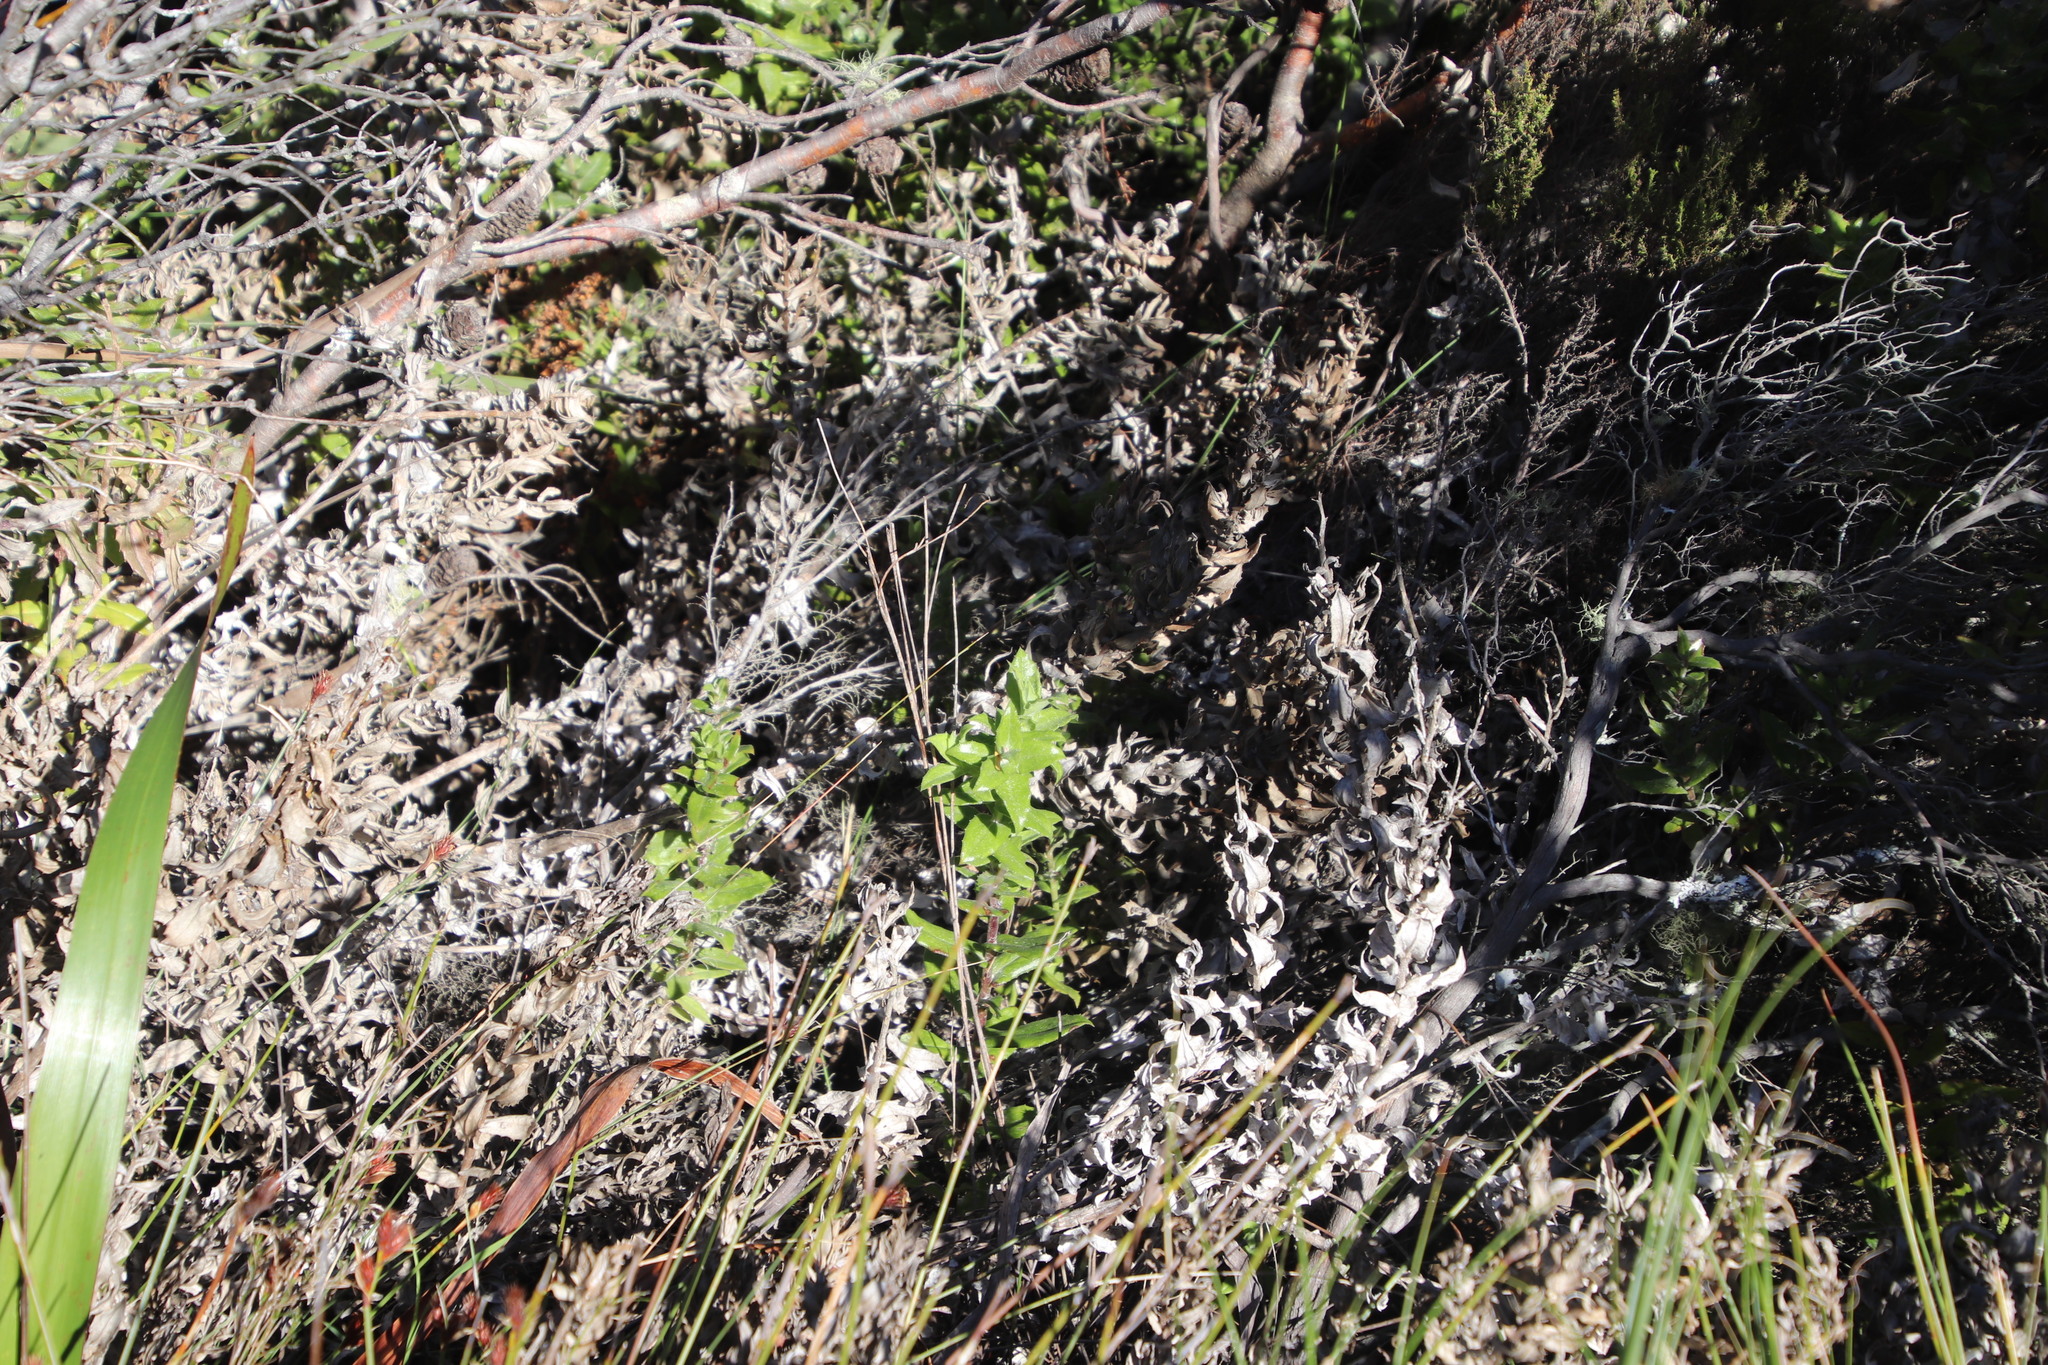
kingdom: Plantae
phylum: Tracheophyta
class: Magnoliopsida
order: Asterales
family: Asteraceae
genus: Osteospermum
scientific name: Osteospermum ilicifolium
